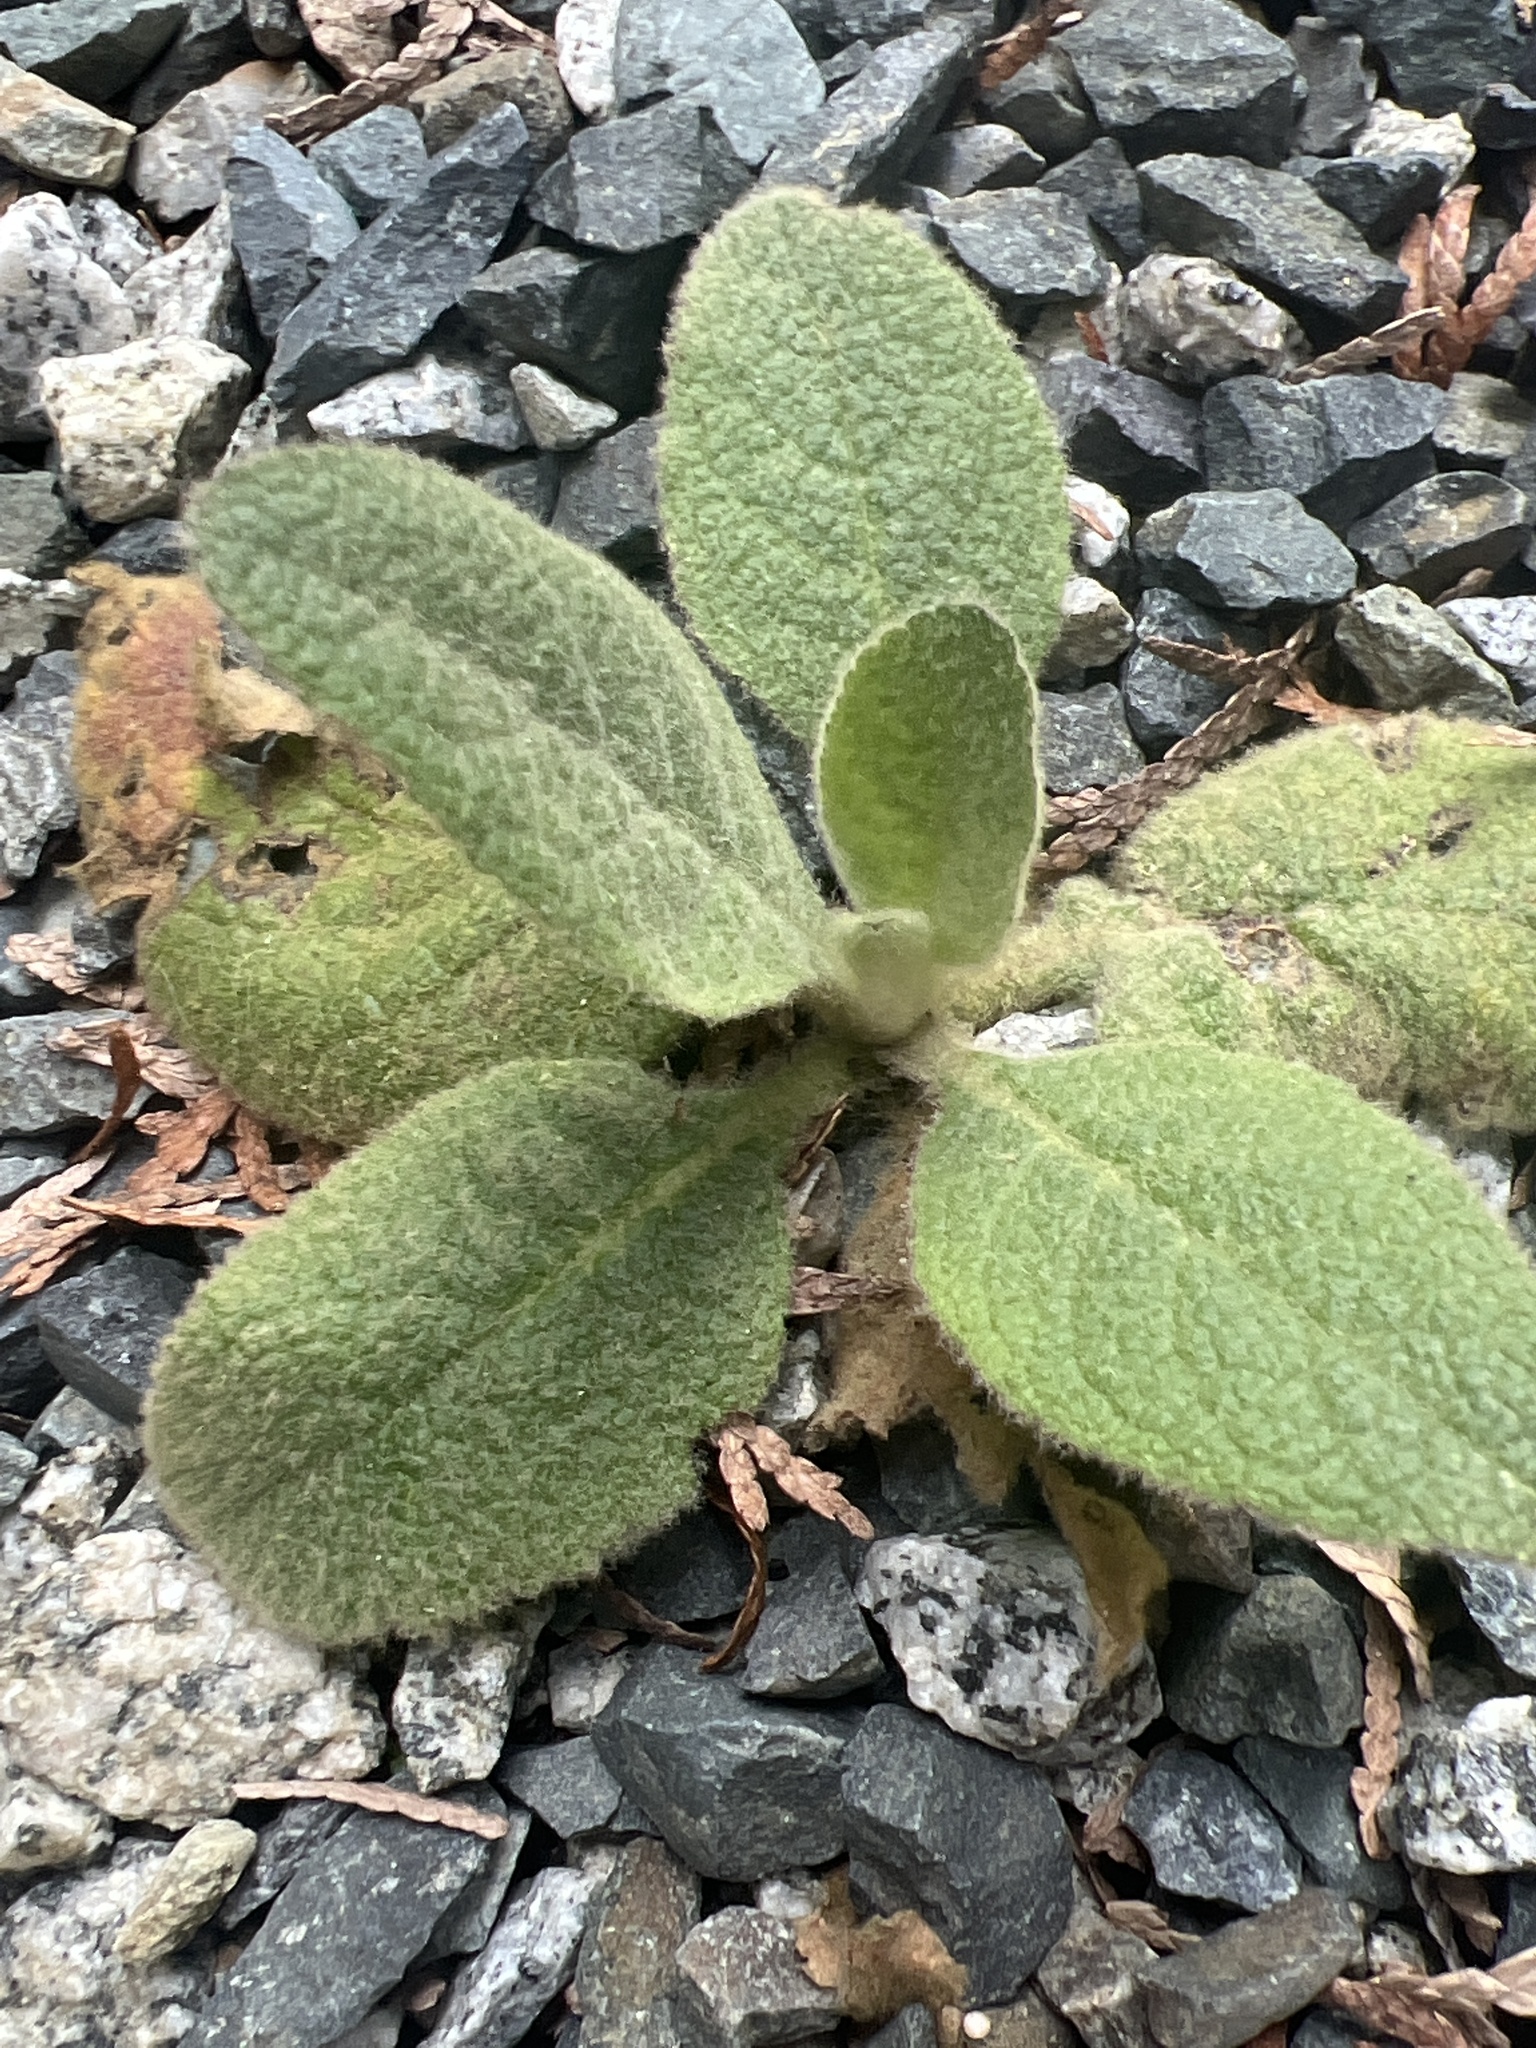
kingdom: Plantae
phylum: Tracheophyta
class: Magnoliopsida
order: Lamiales
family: Scrophulariaceae
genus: Verbascum
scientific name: Verbascum thapsus
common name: Common mullein
